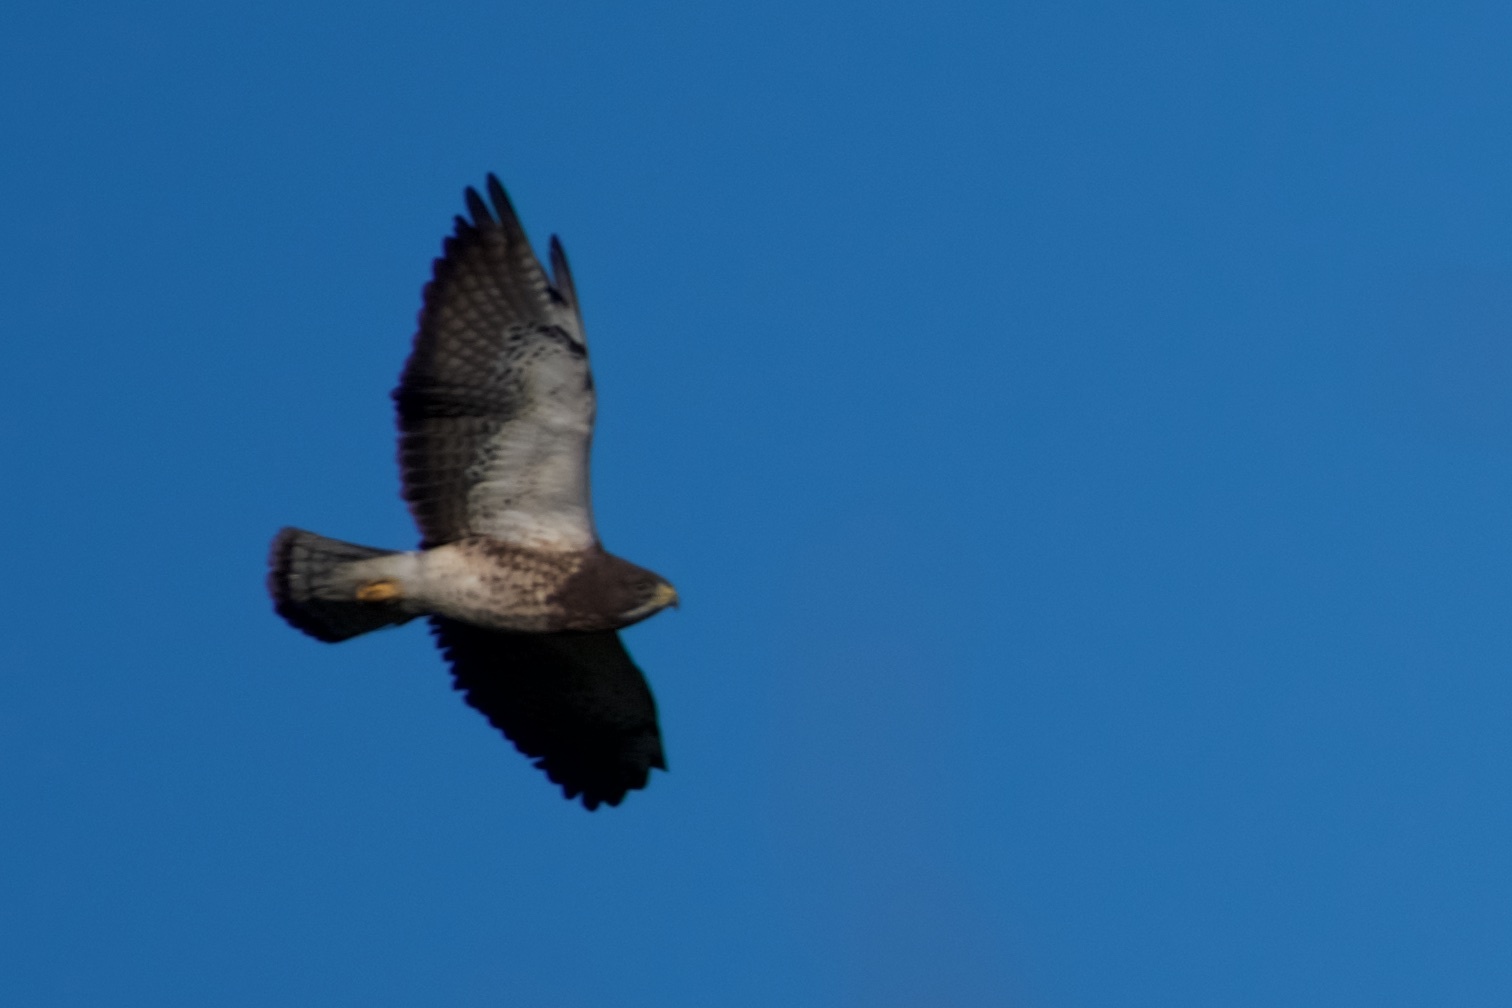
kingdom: Animalia
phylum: Chordata
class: Aves
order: Accipitriformes
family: Accipitridae
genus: Buteo
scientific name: Buteo swainsoni
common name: Swainson's hawk
